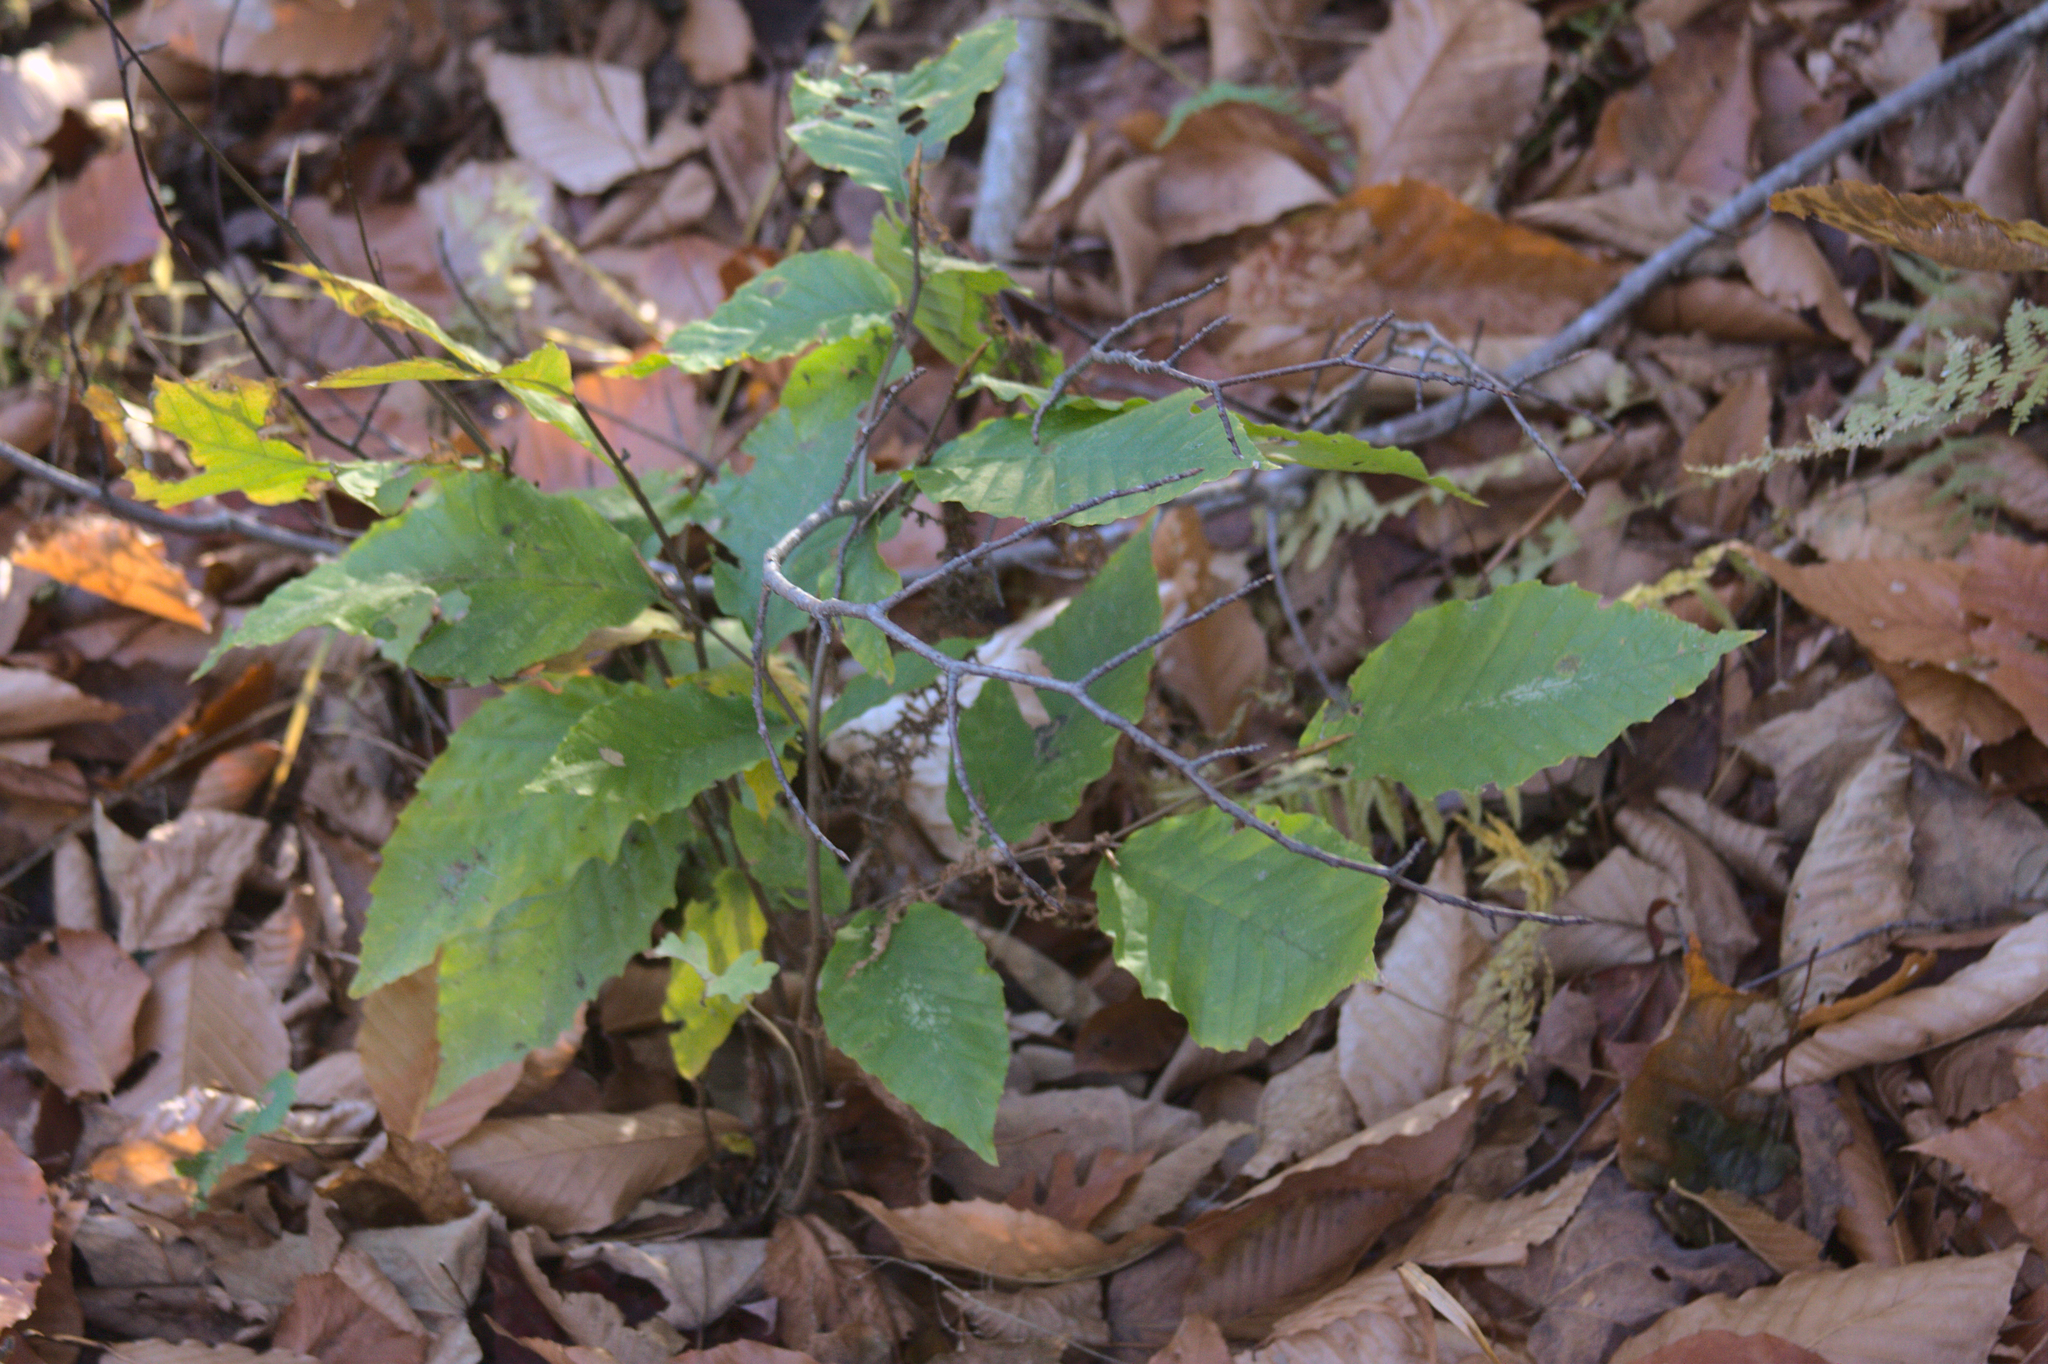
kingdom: Plantae
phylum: Tracheophyta
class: Magnoliopsida
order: Fagales
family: Fagaceae
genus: Fagus
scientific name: Fagus grandifolia
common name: American beech
